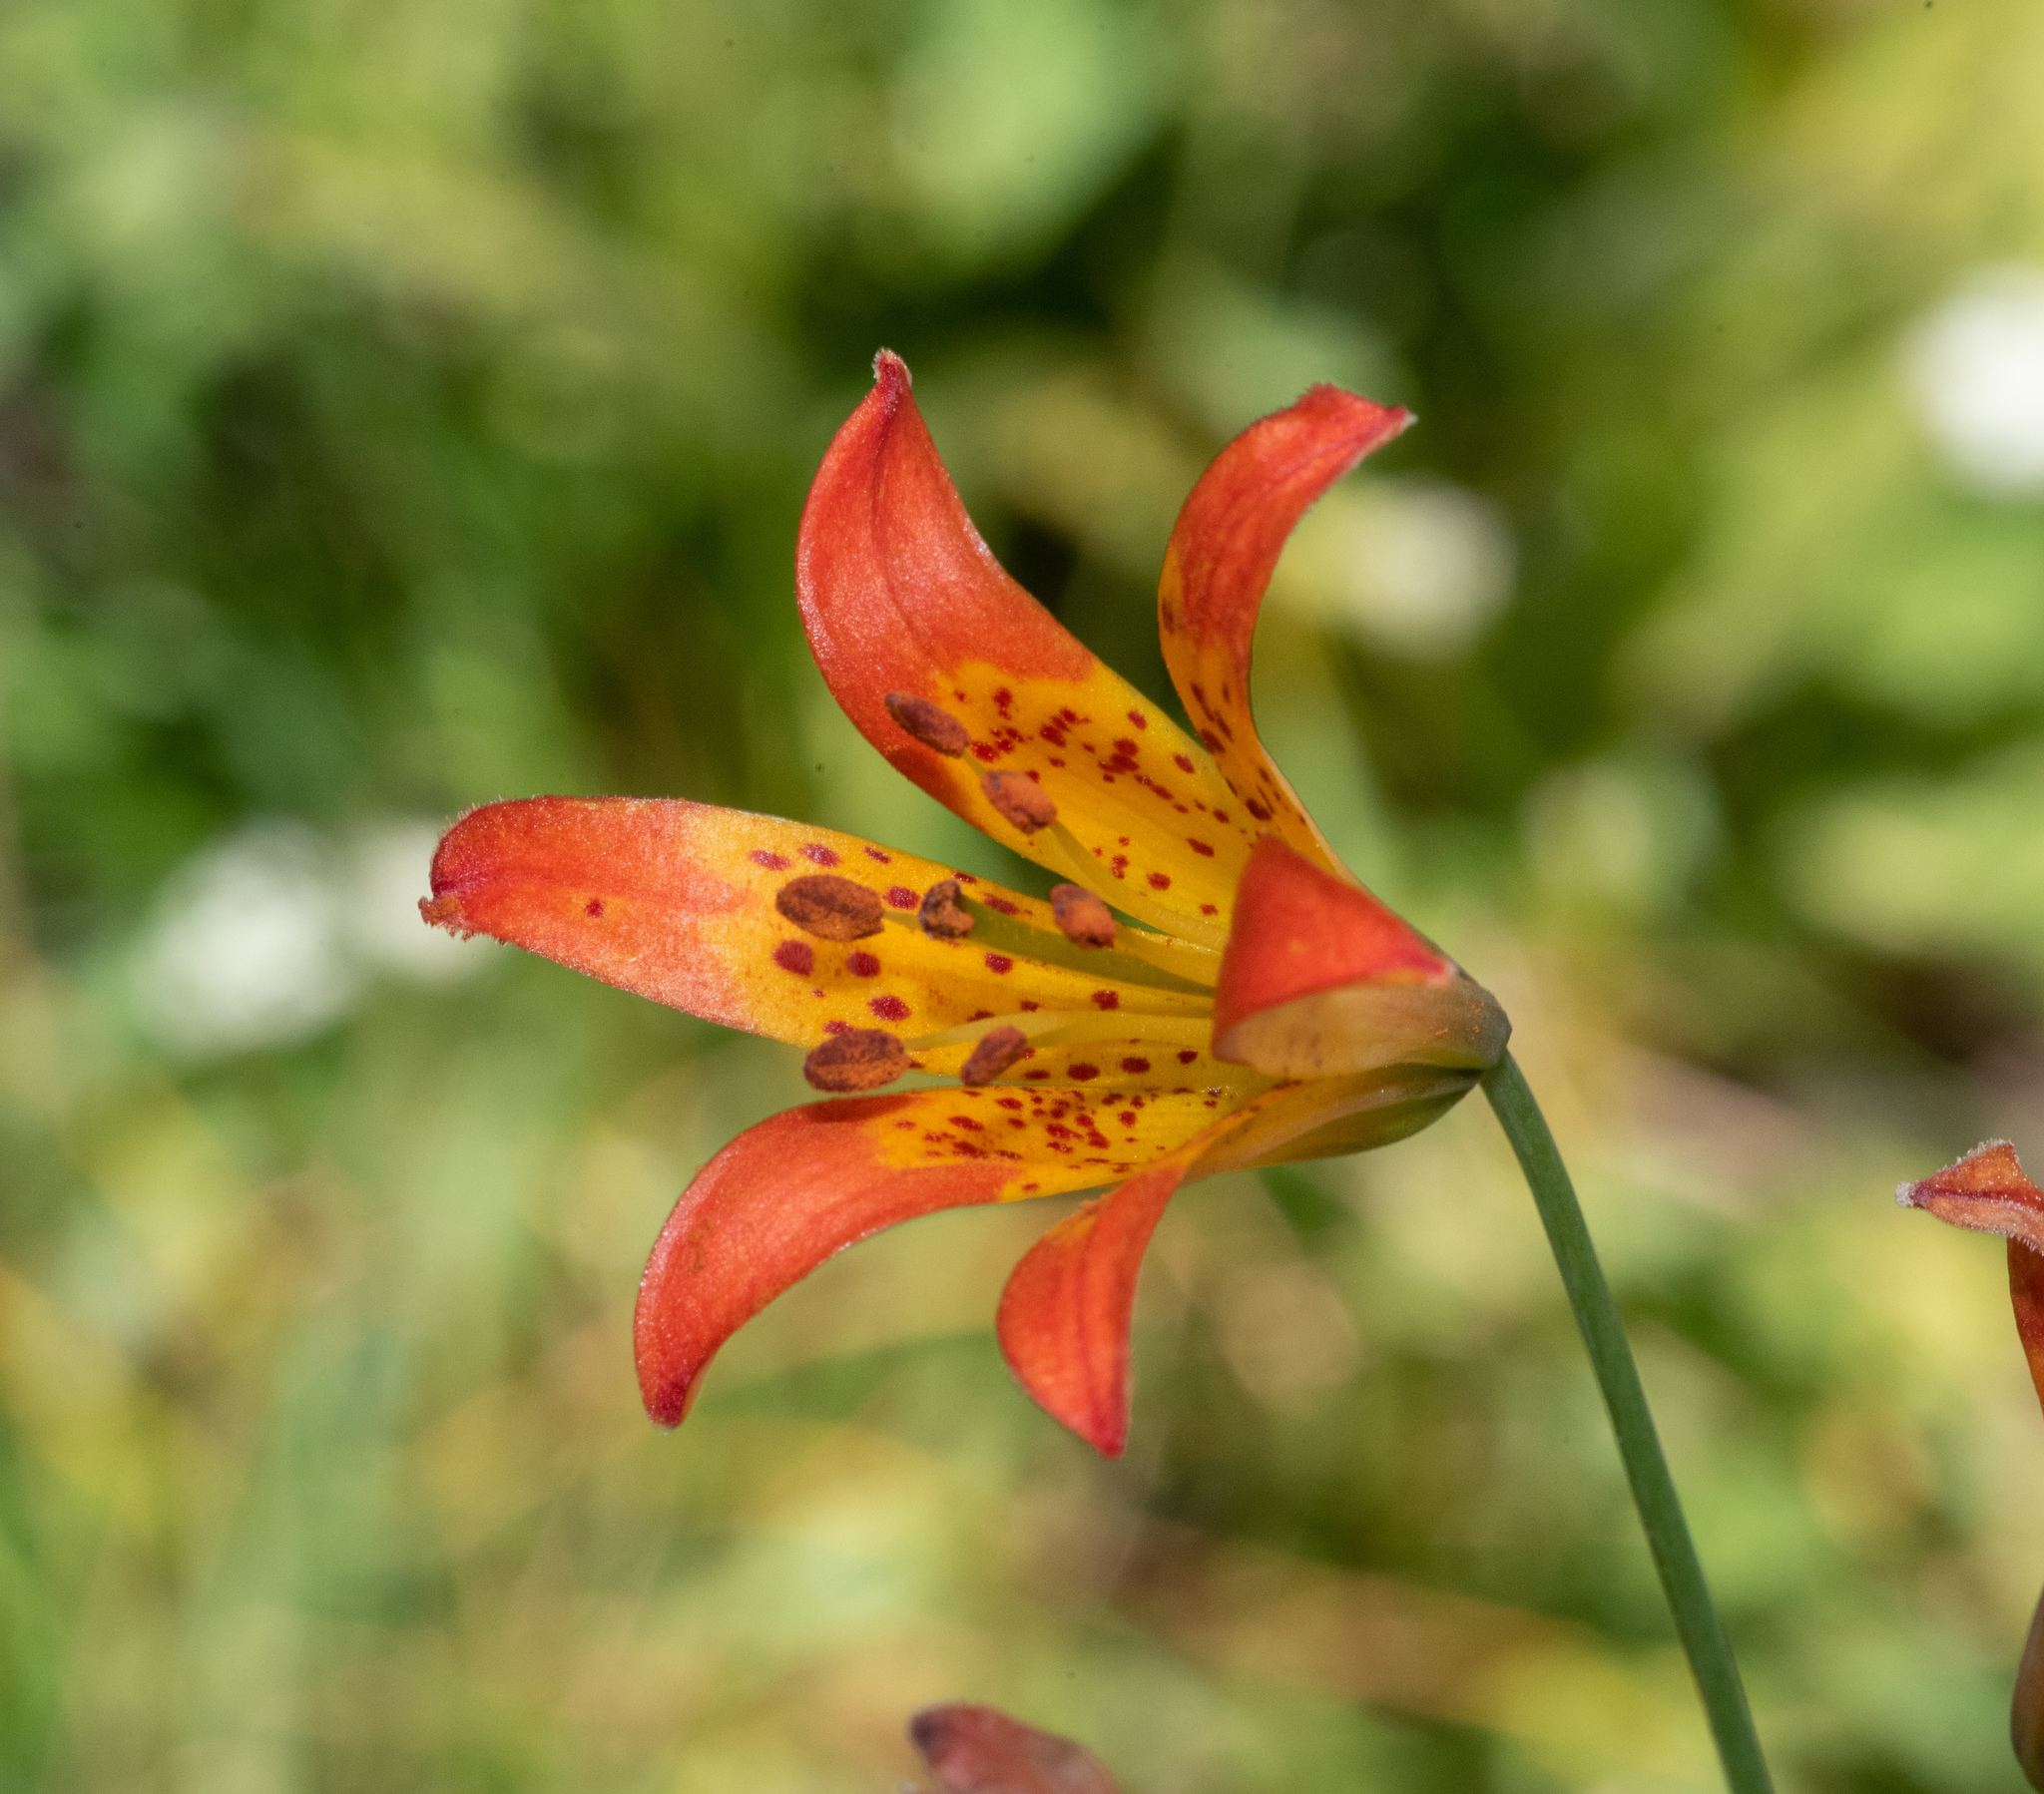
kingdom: Plantae
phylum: Tracheophyta
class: Liliopsida
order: Liliales
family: Liliaceae
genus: Lilium
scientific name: Lilium parvum
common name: Alpine lily
